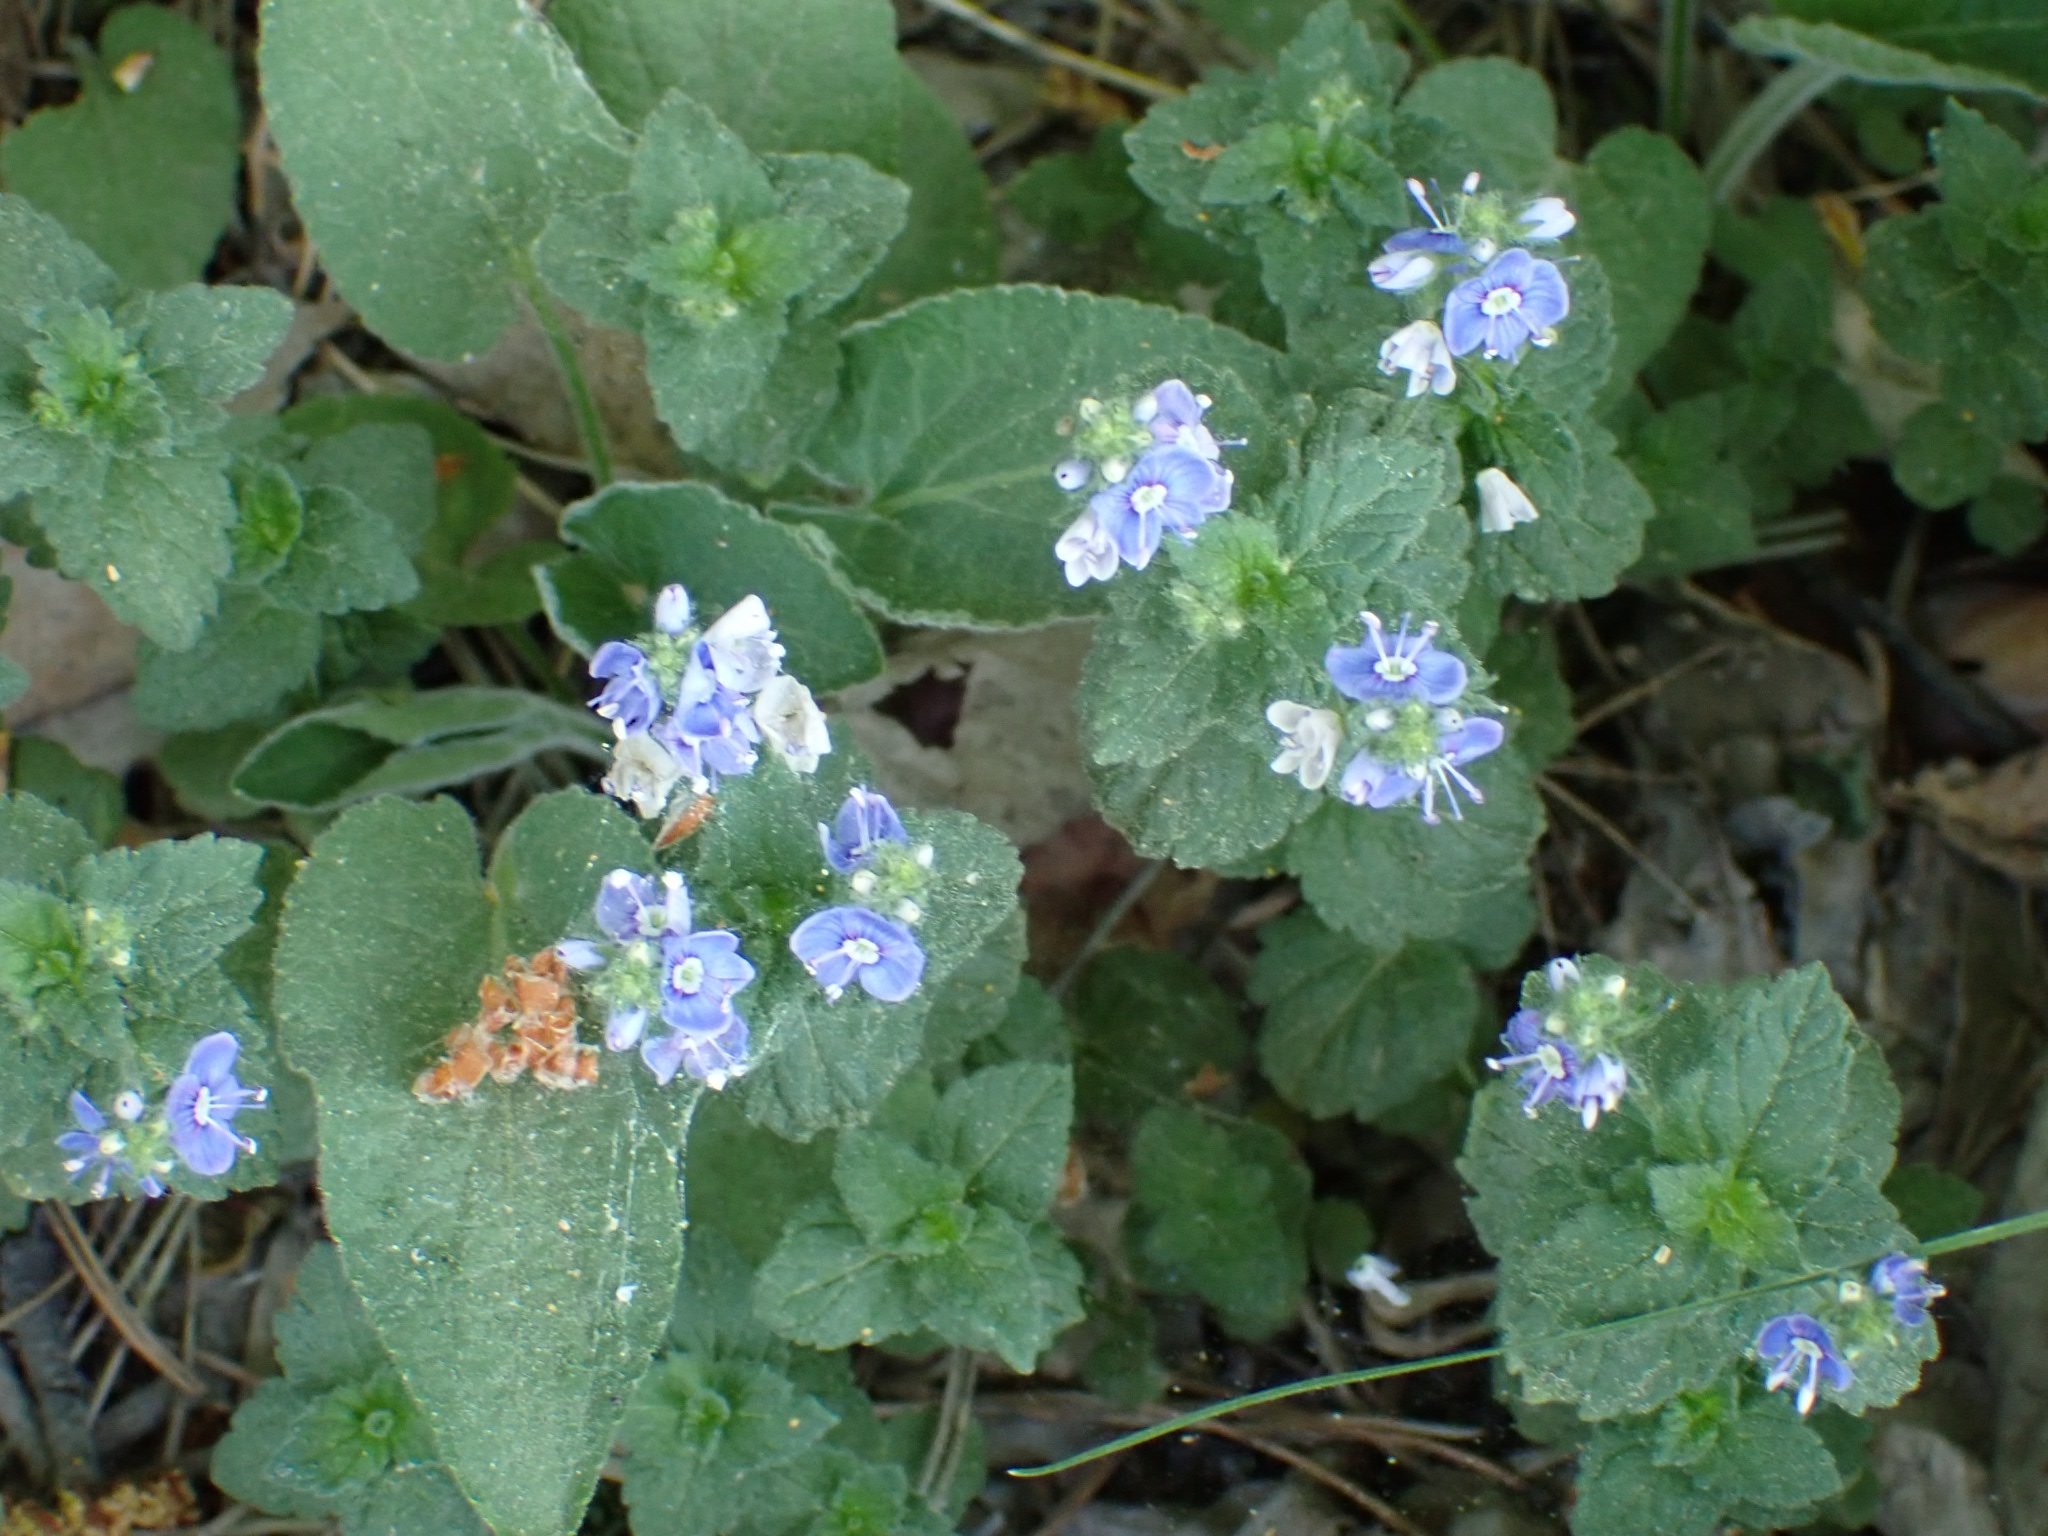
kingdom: Plantae
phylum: Tracheophyta
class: Magnoliopsida
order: Lamiales
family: Plantaginaceae
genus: Veronica
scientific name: Veronica chamaedrys
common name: Germander speedwell
